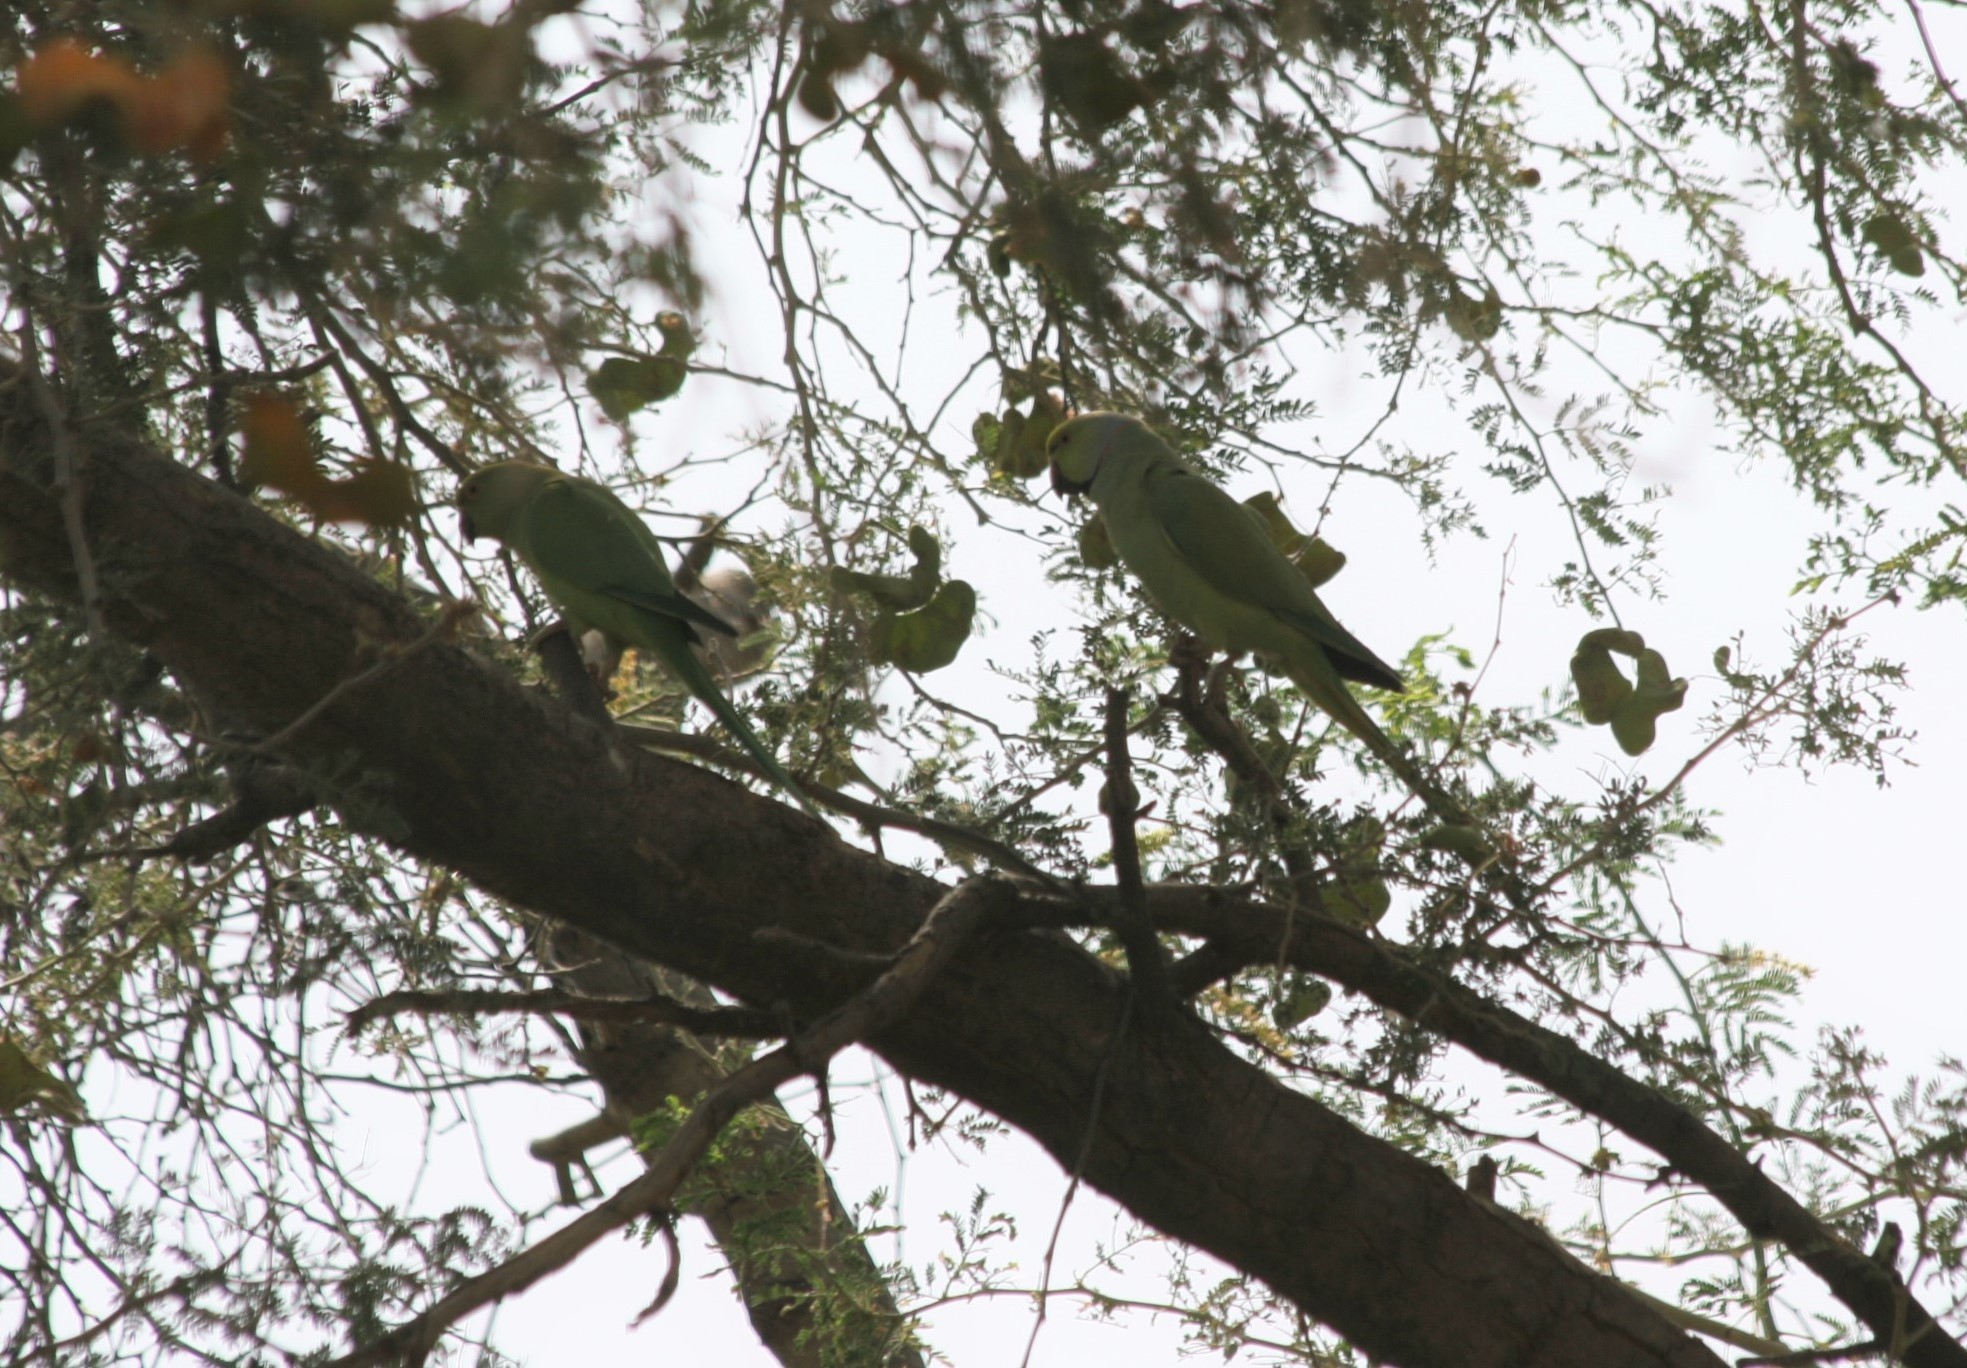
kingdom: Animalia
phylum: Chordata
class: Aves
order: Psittaciformes
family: Psittacidae
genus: Psittacula
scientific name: Psittacula krameri
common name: Rose-ringed parakeet
